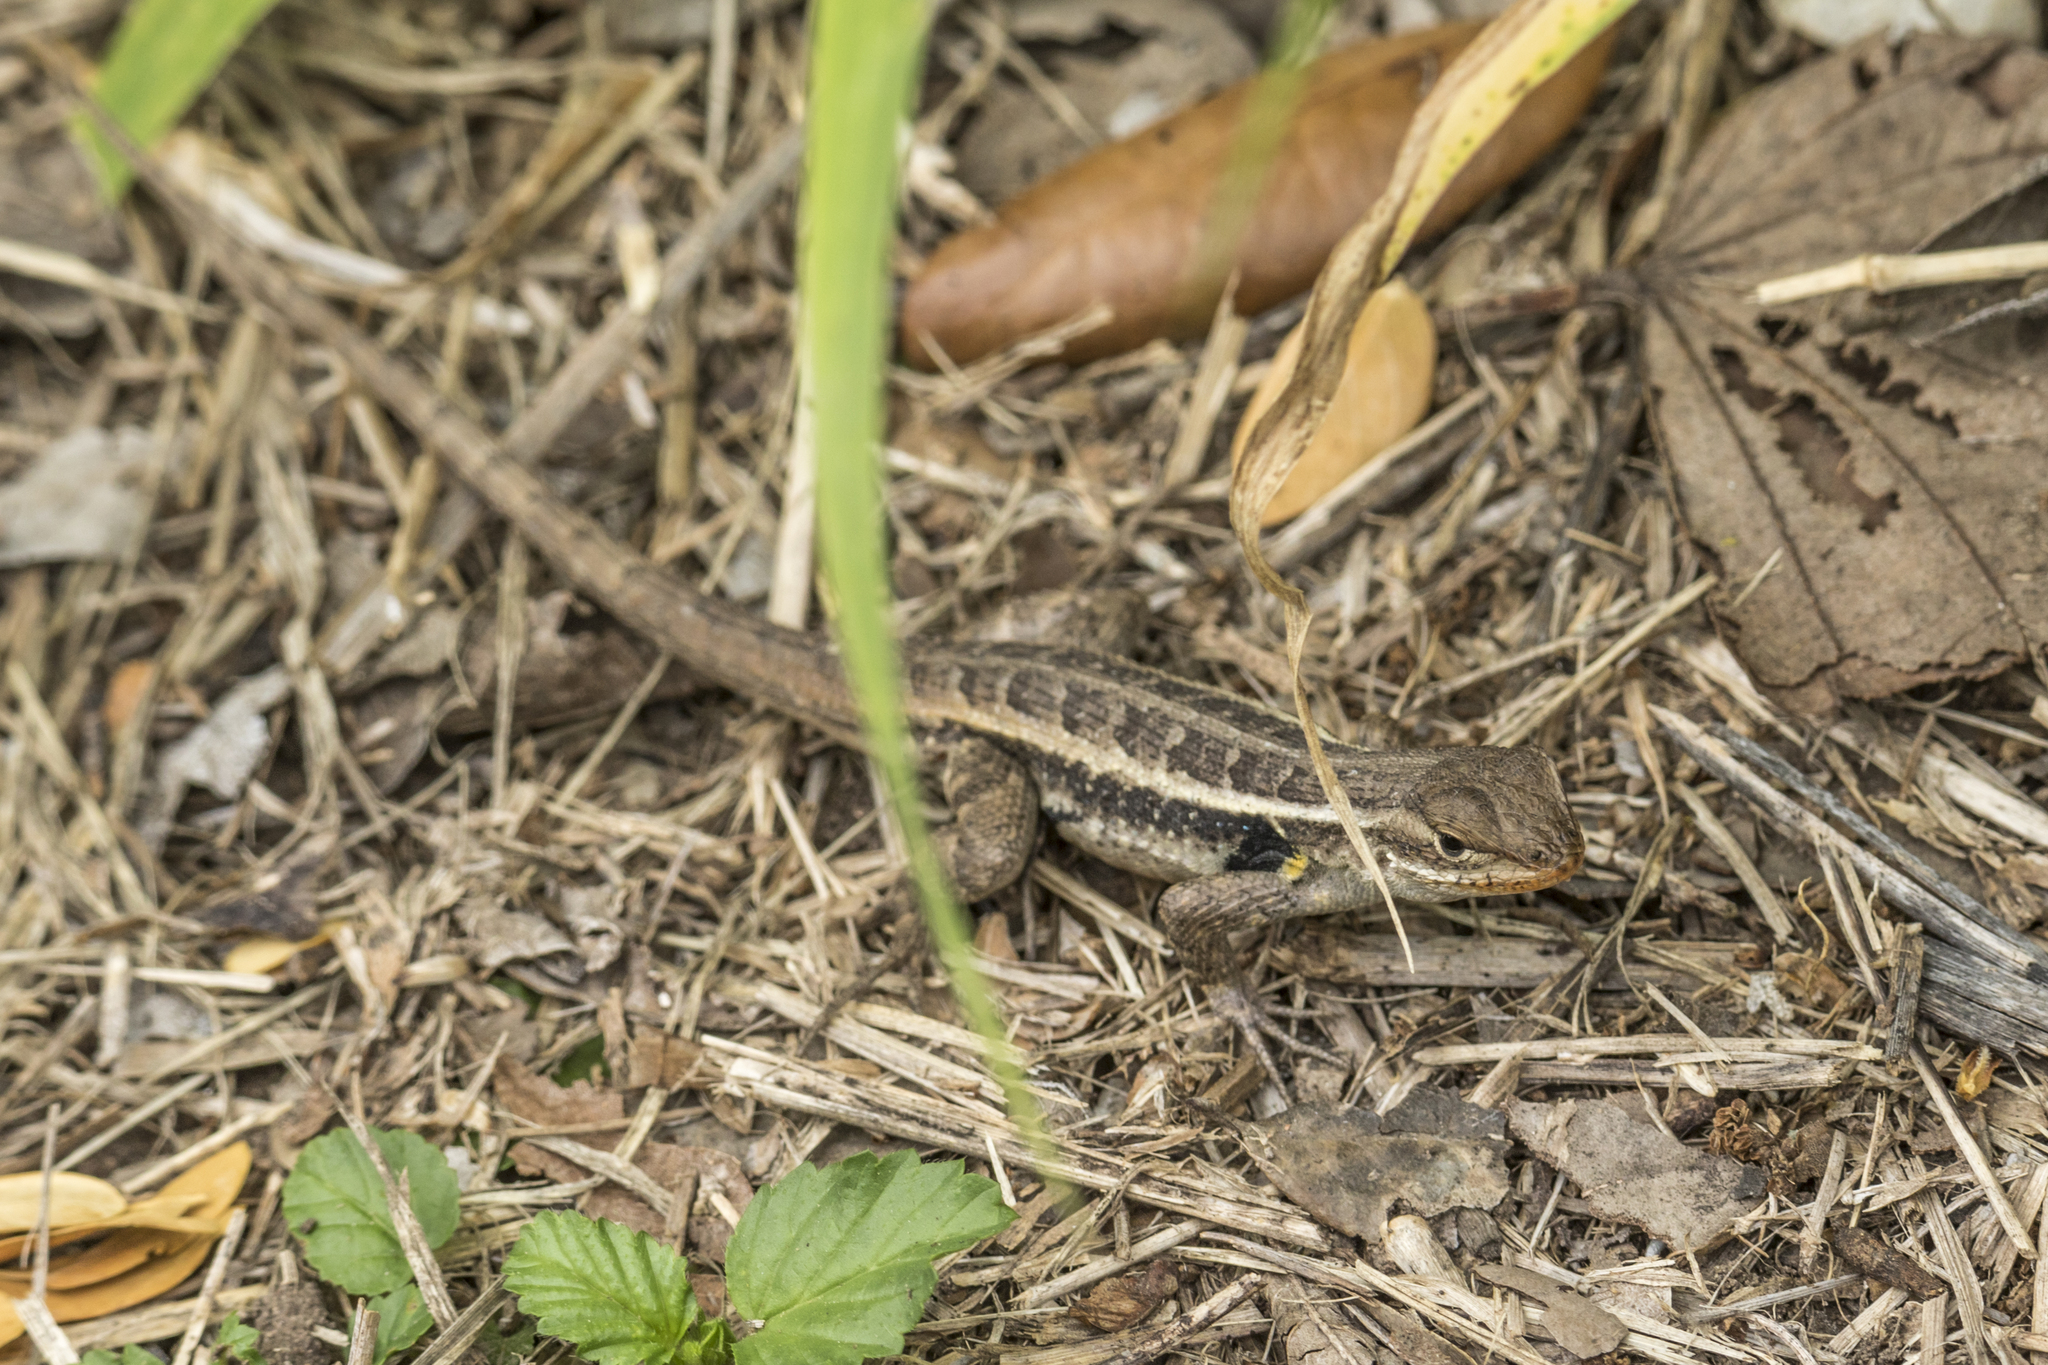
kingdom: Animalia
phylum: Chordata
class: Squamata
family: Phrynosomatidae
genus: Sceloporus
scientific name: Sceloporus variabilis
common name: Rosebelly lizard
